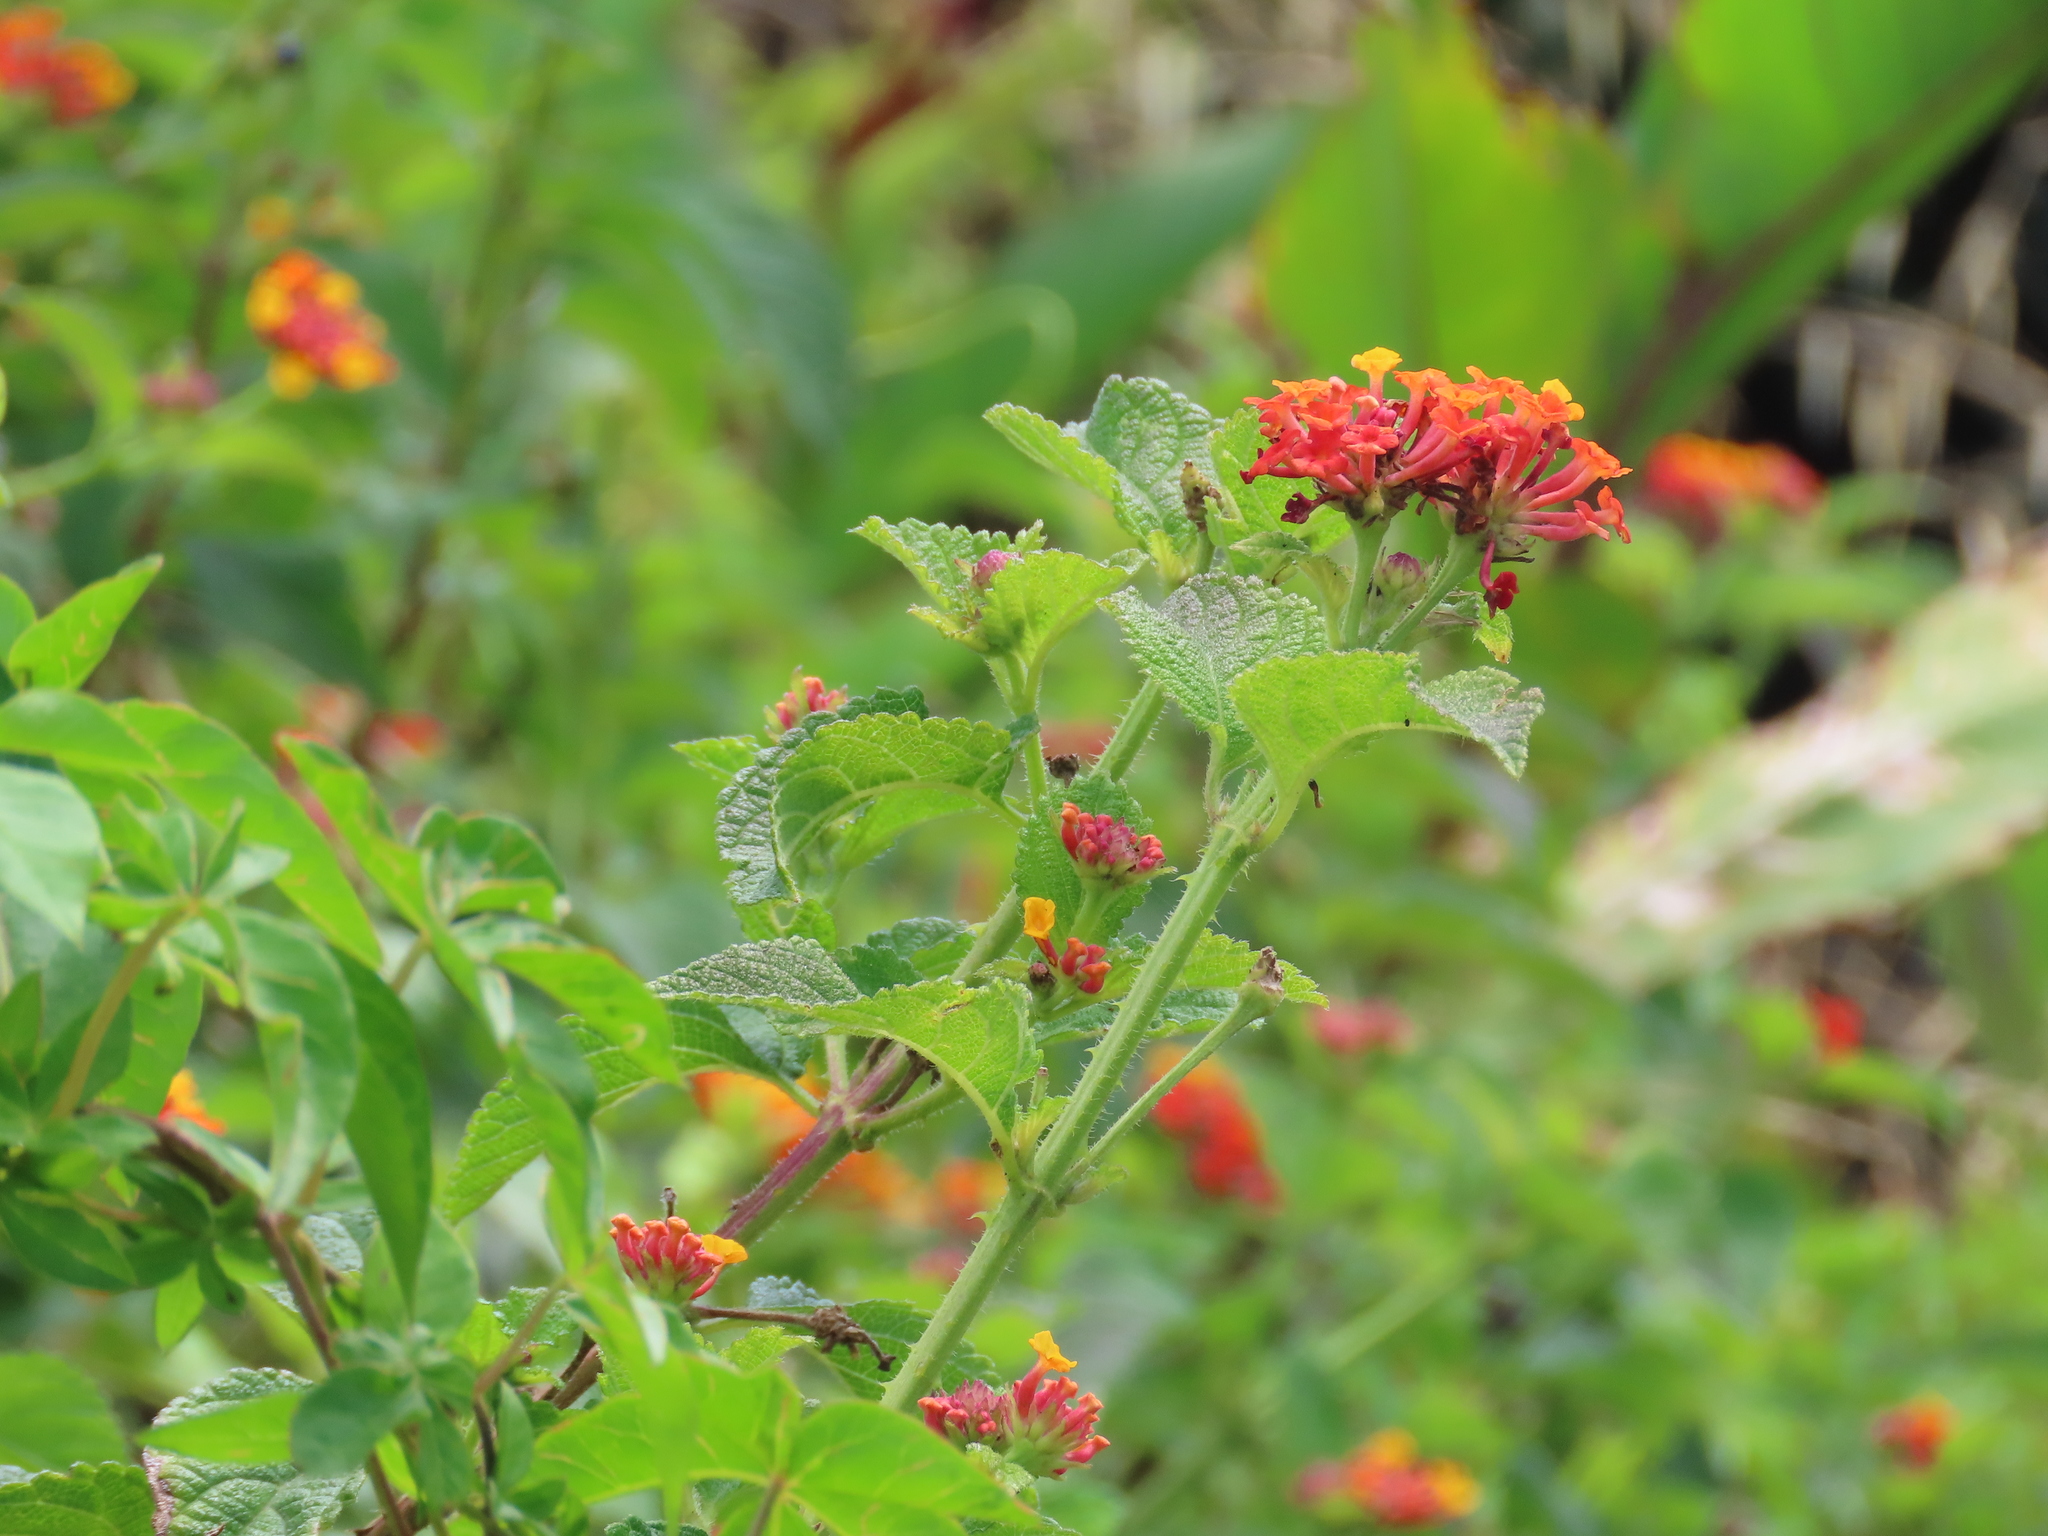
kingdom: Plantae
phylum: Tracheophyta
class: Magnoliopsida
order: Lamiales
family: Verbenaceae
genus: Lantana
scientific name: Lantana camara
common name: Lantana
